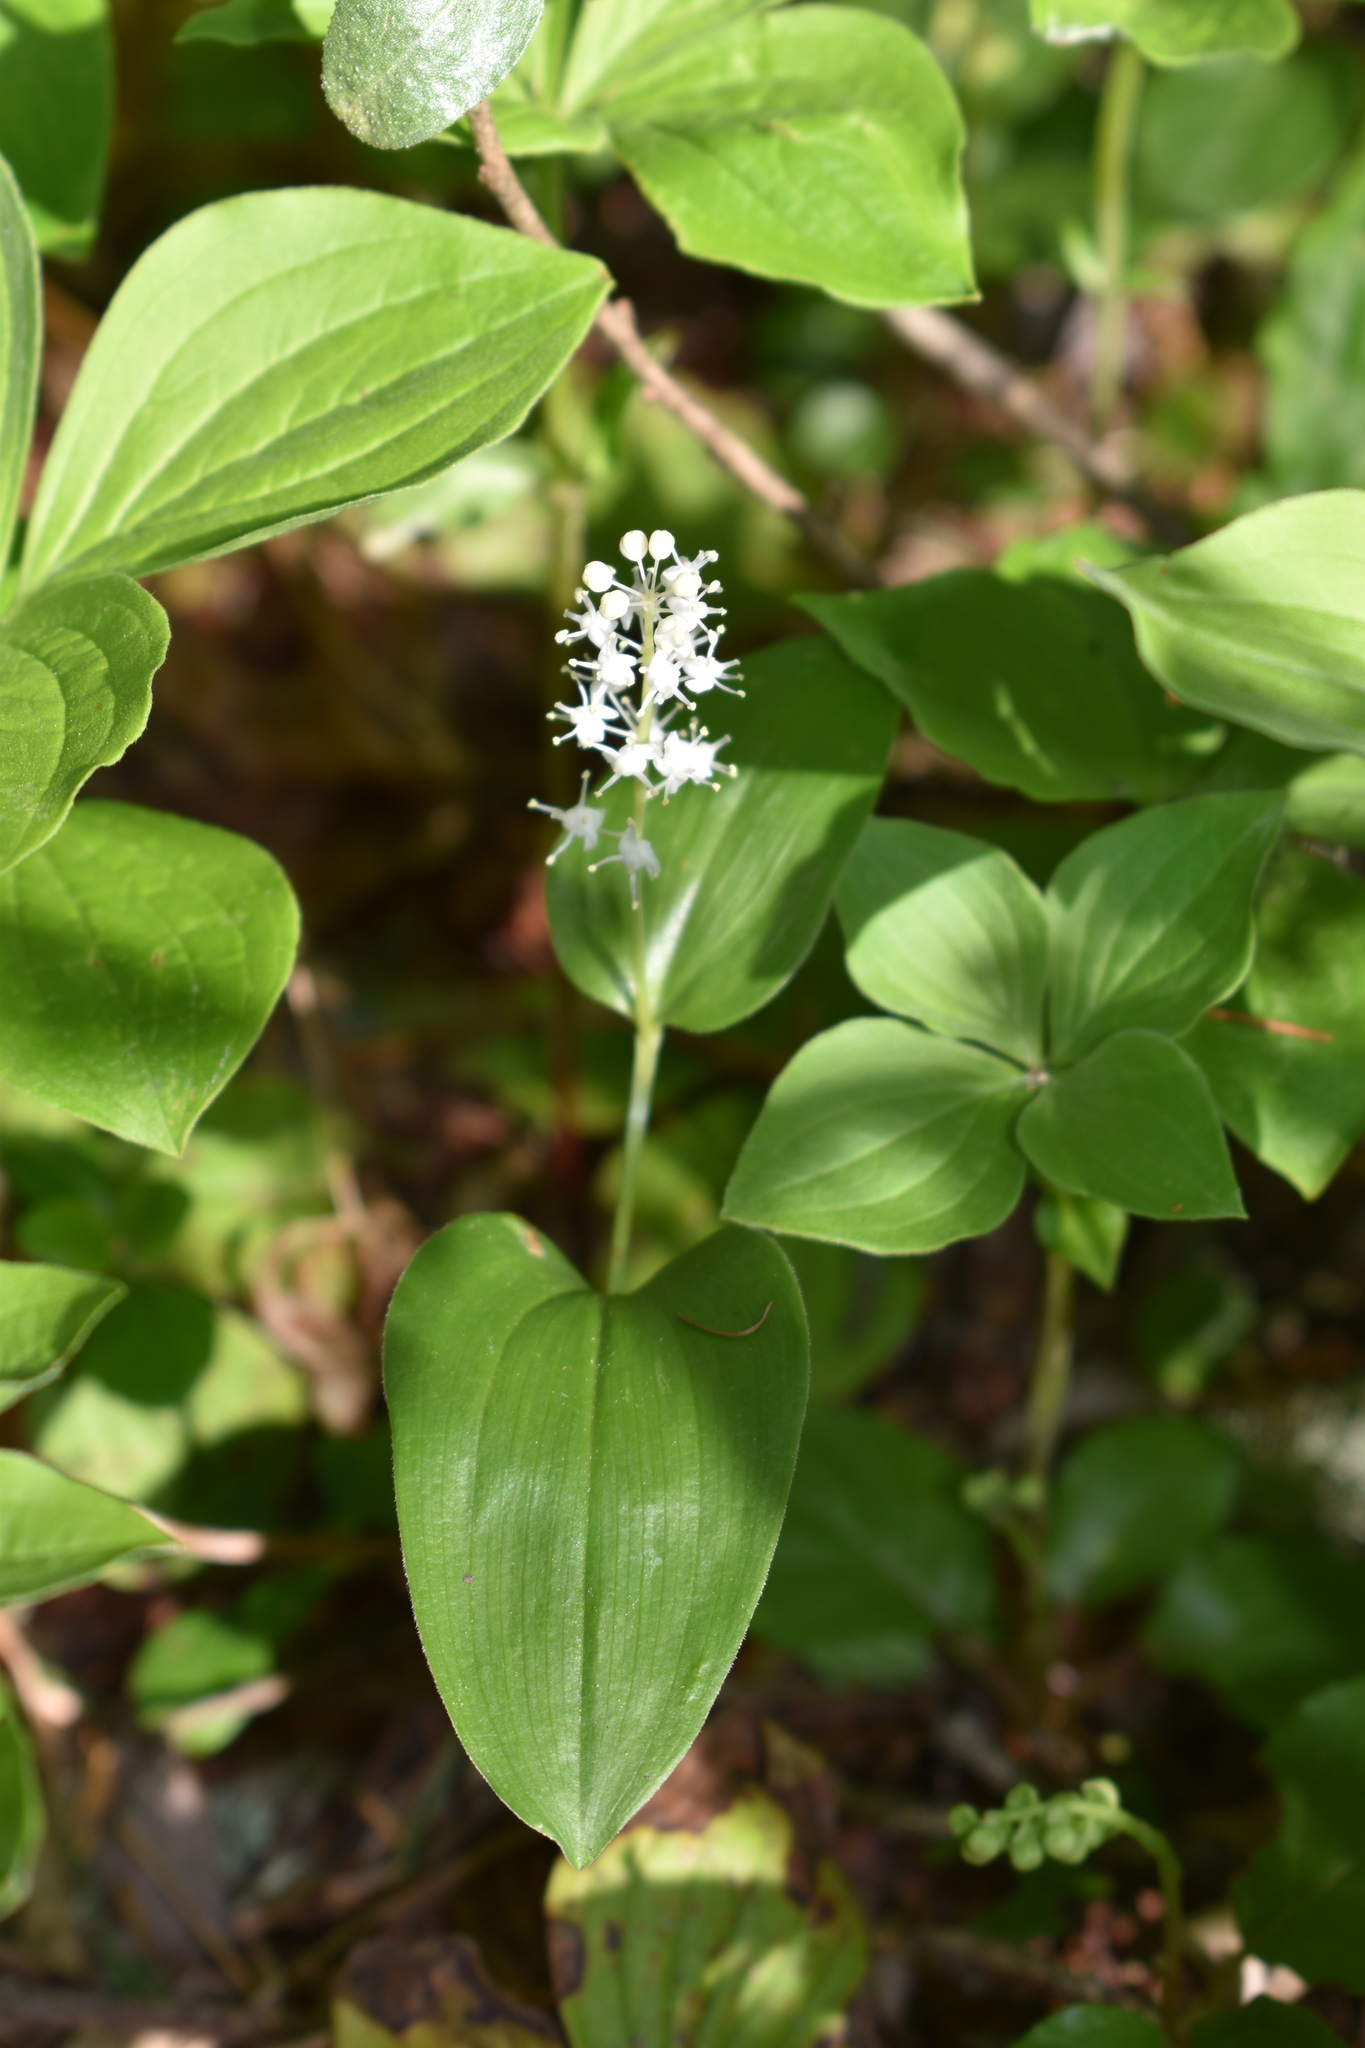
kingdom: Plantae
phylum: Tracheophyta
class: Liliopsida
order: Asparagales
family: Asparagaceae
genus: Maianthemum
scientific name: Maianthemum canadense
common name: False lily-of-the-valley
